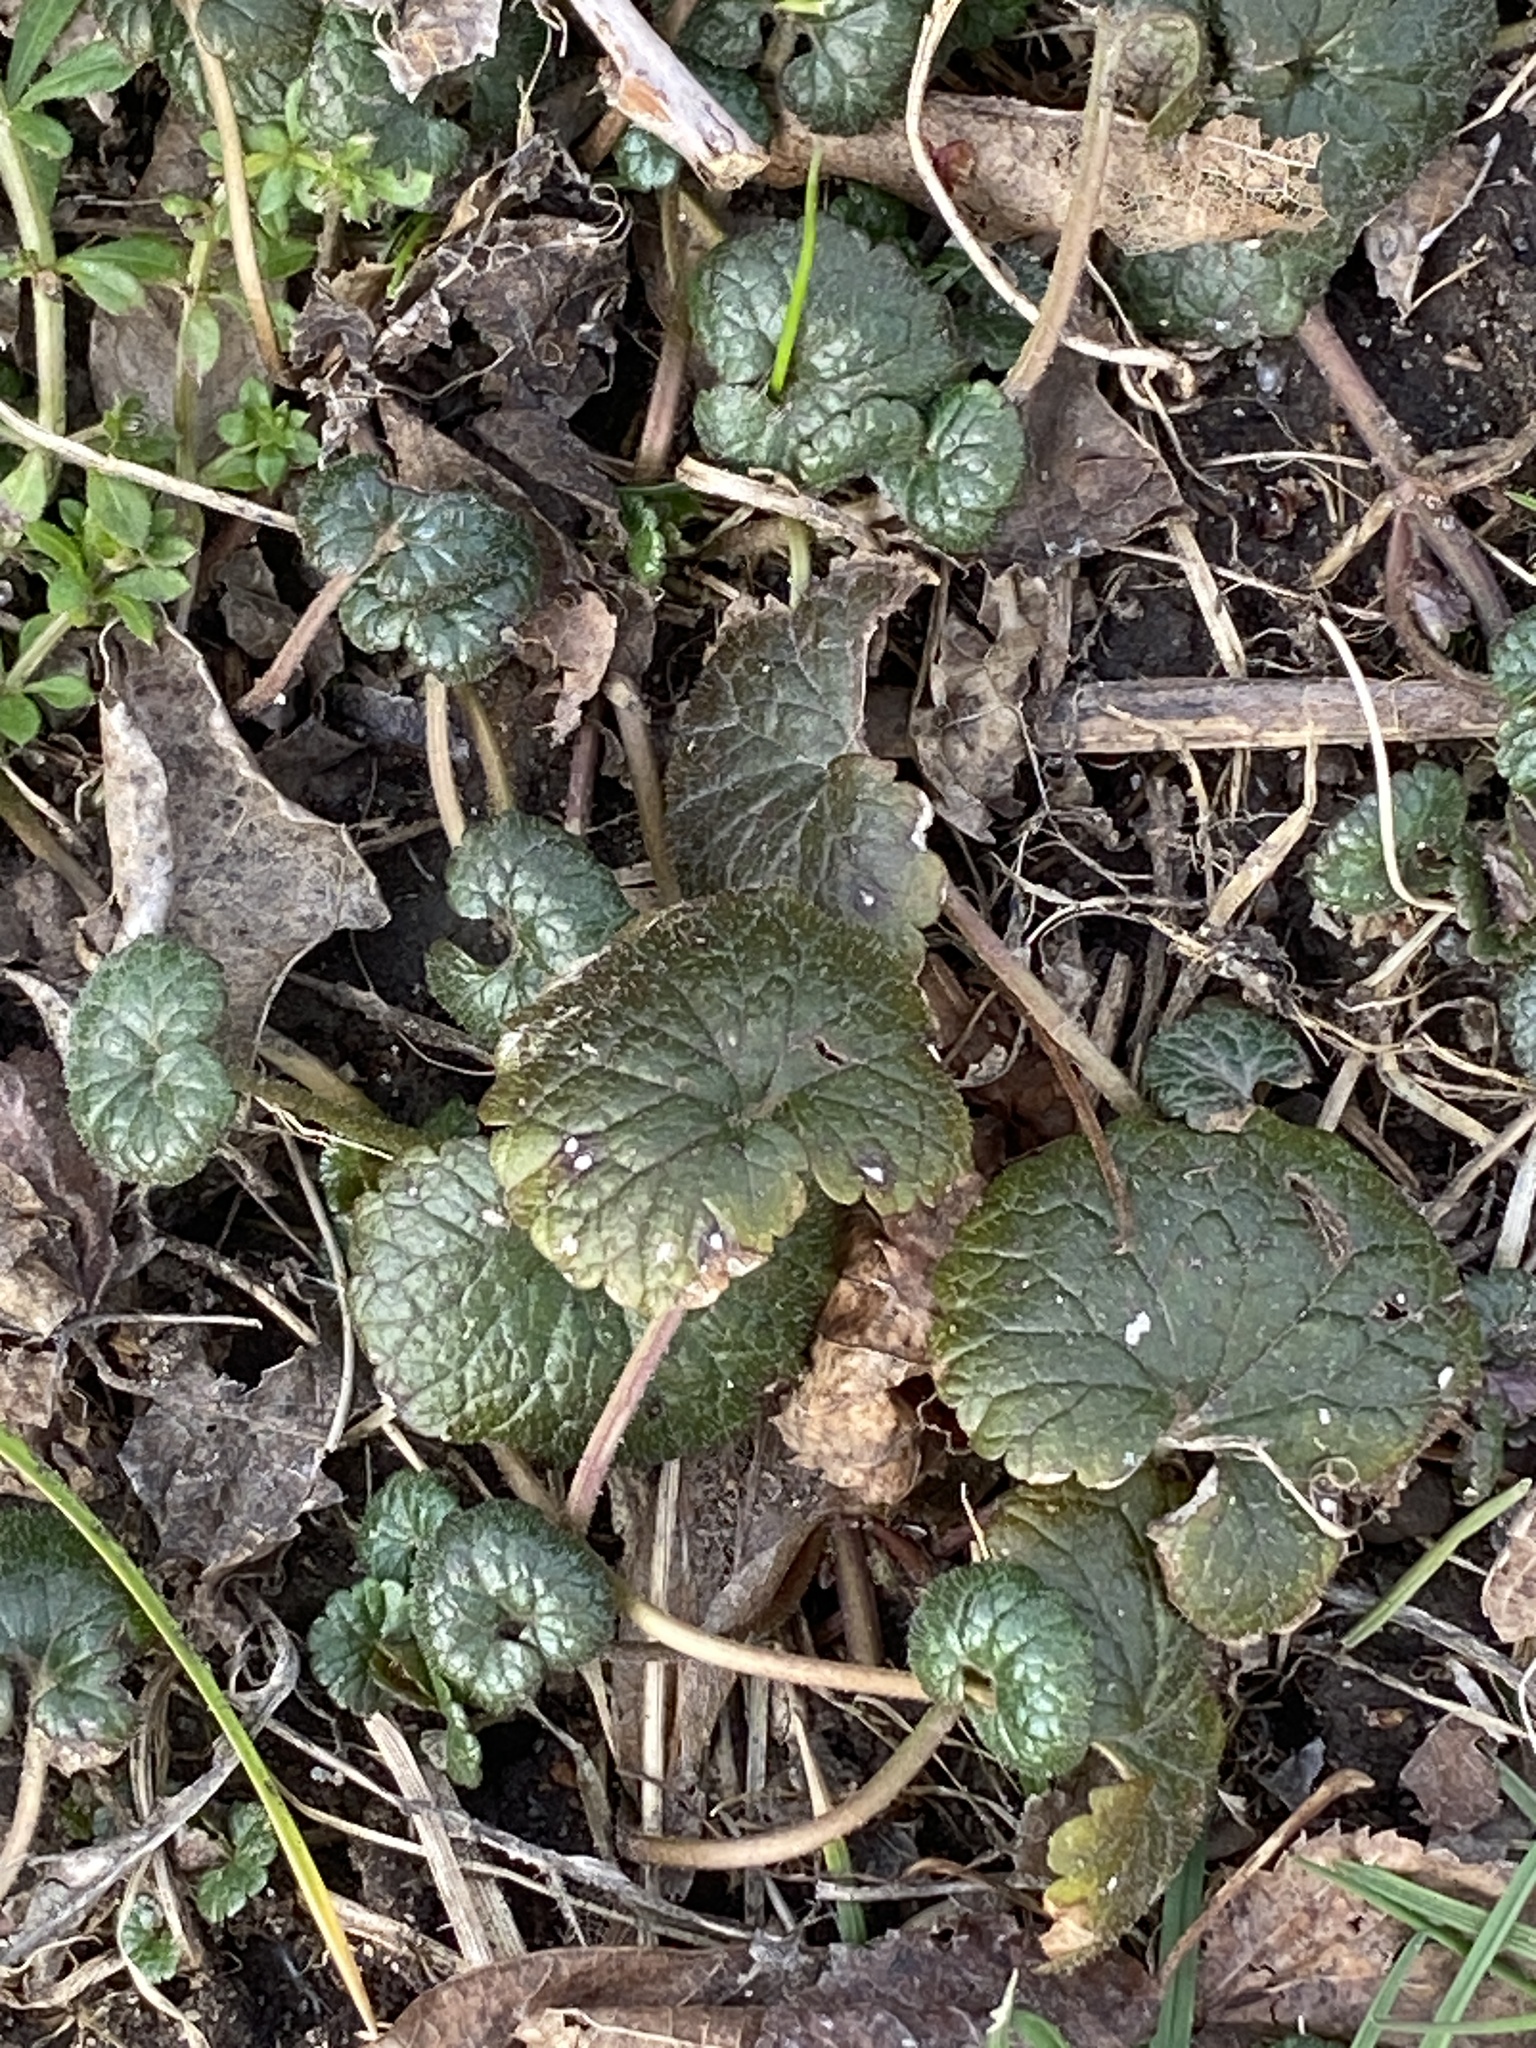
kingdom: Plantae
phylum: Tracheophyta
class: Magnoliopsida
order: Lamiales
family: Lamiaceae
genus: Glechoma
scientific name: Glechoma hederacea
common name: Ground ivy
